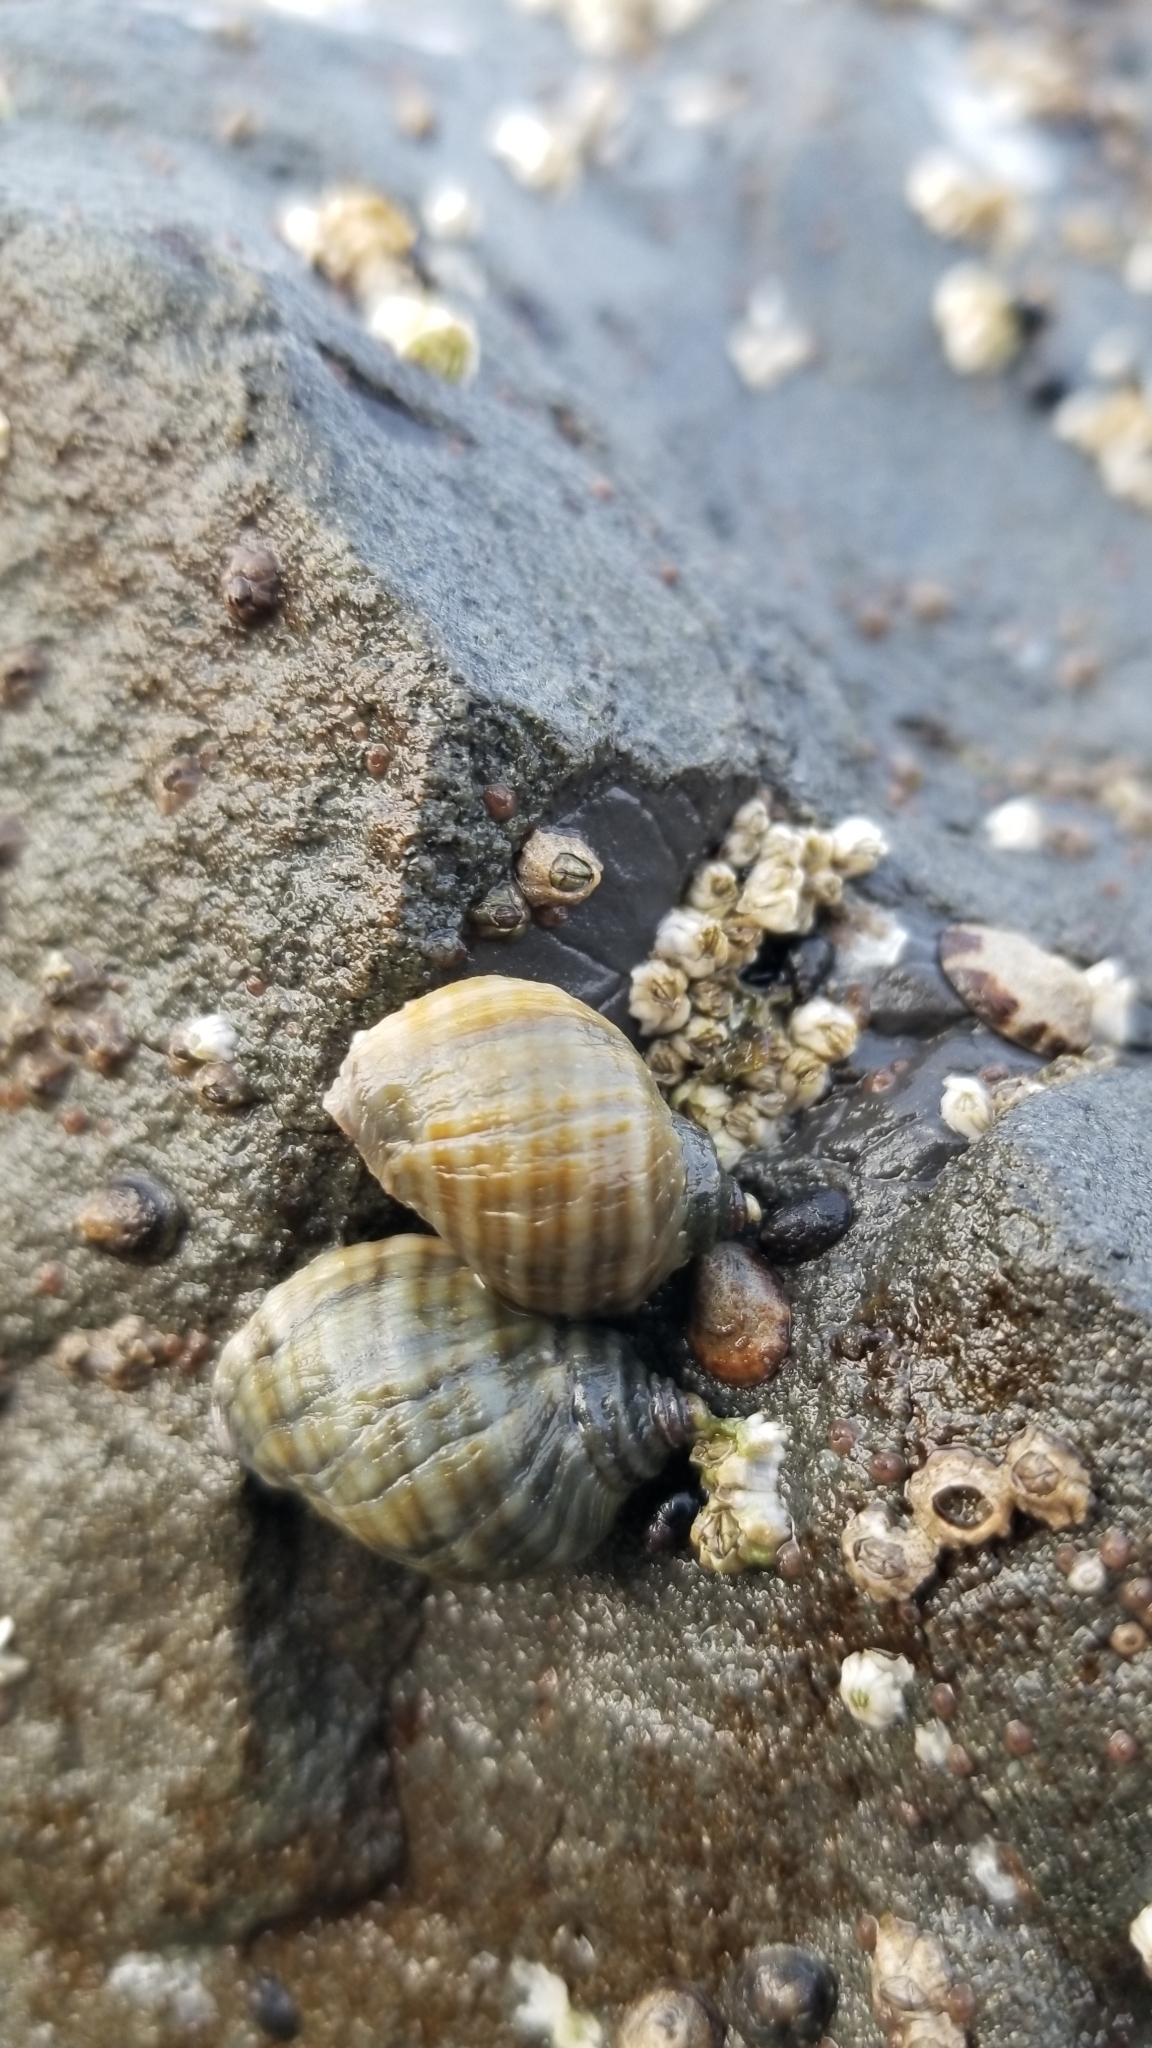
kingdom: Animalia
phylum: Mollusca
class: Gastropoda
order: Neogastropoda
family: Muricidae
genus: Nucella
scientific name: Nucella ostrina
